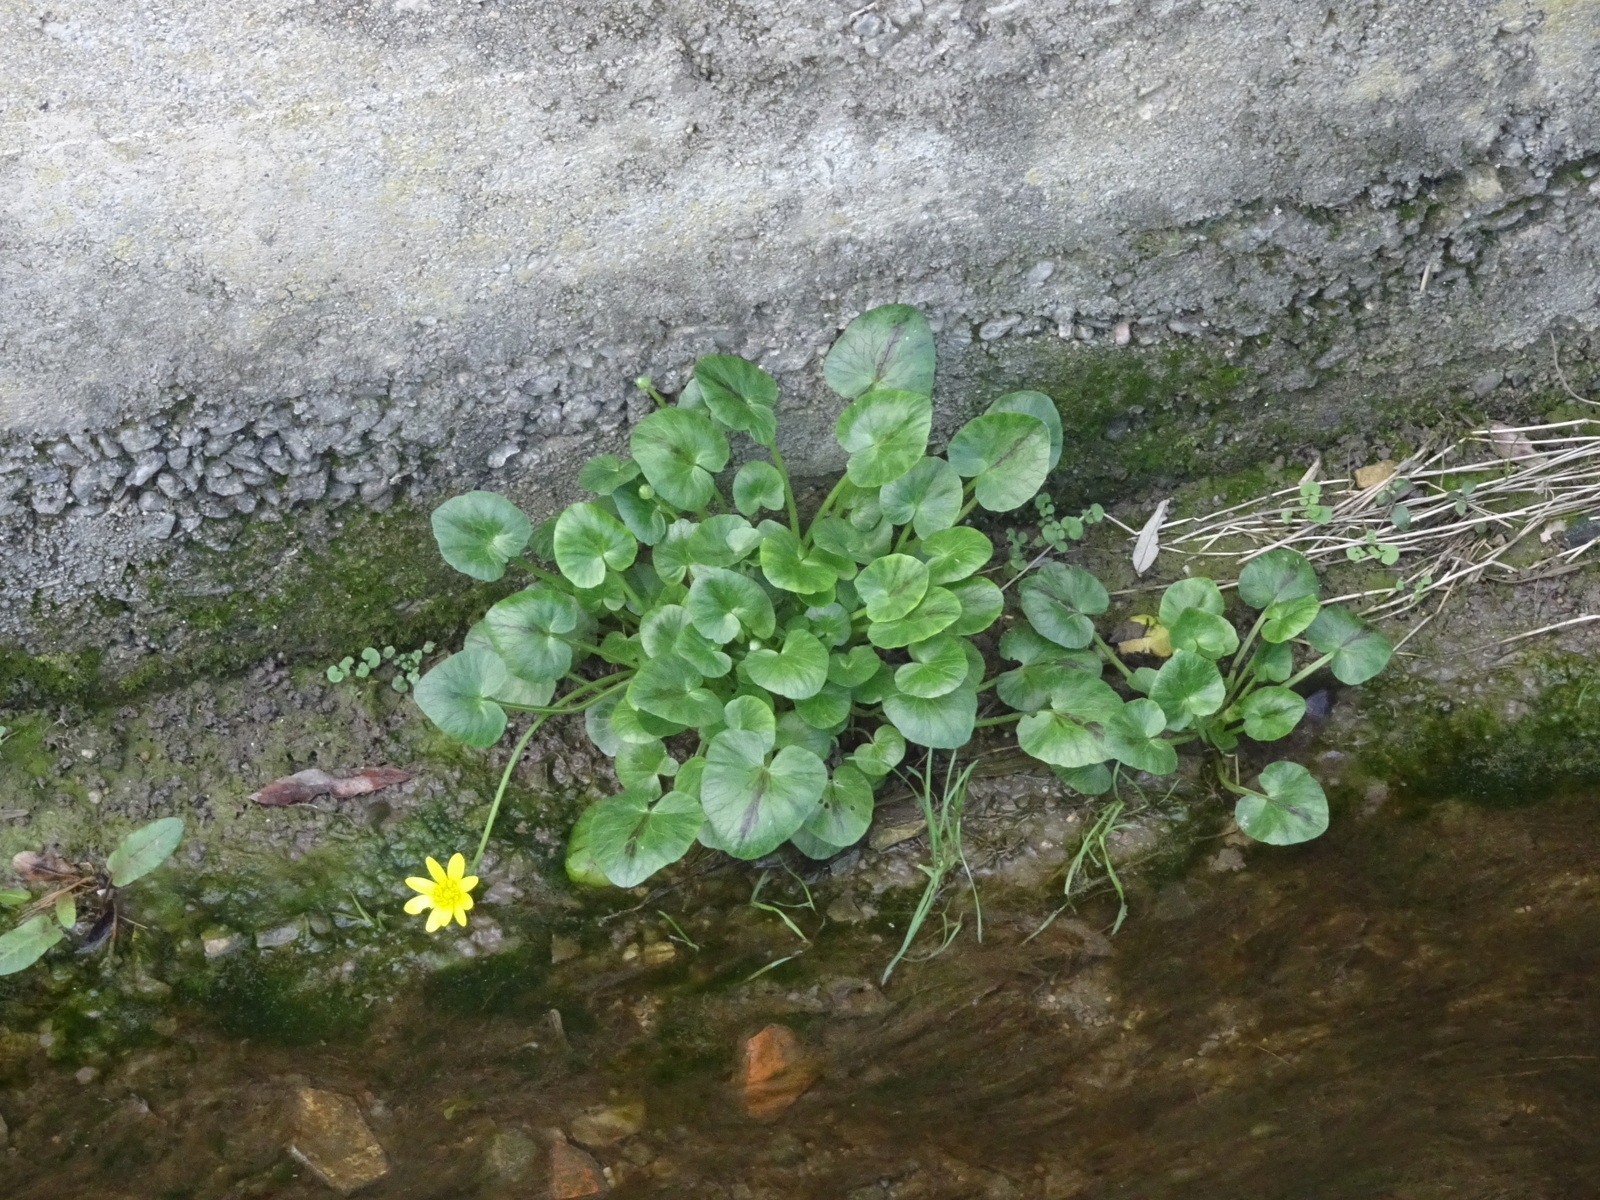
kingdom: Plantae
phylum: Tracheophyta
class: Magnoliopsida
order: Ranunculales
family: Ranunculaceae
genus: Ficaria
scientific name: Ficaria verna
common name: Lesser celandine
